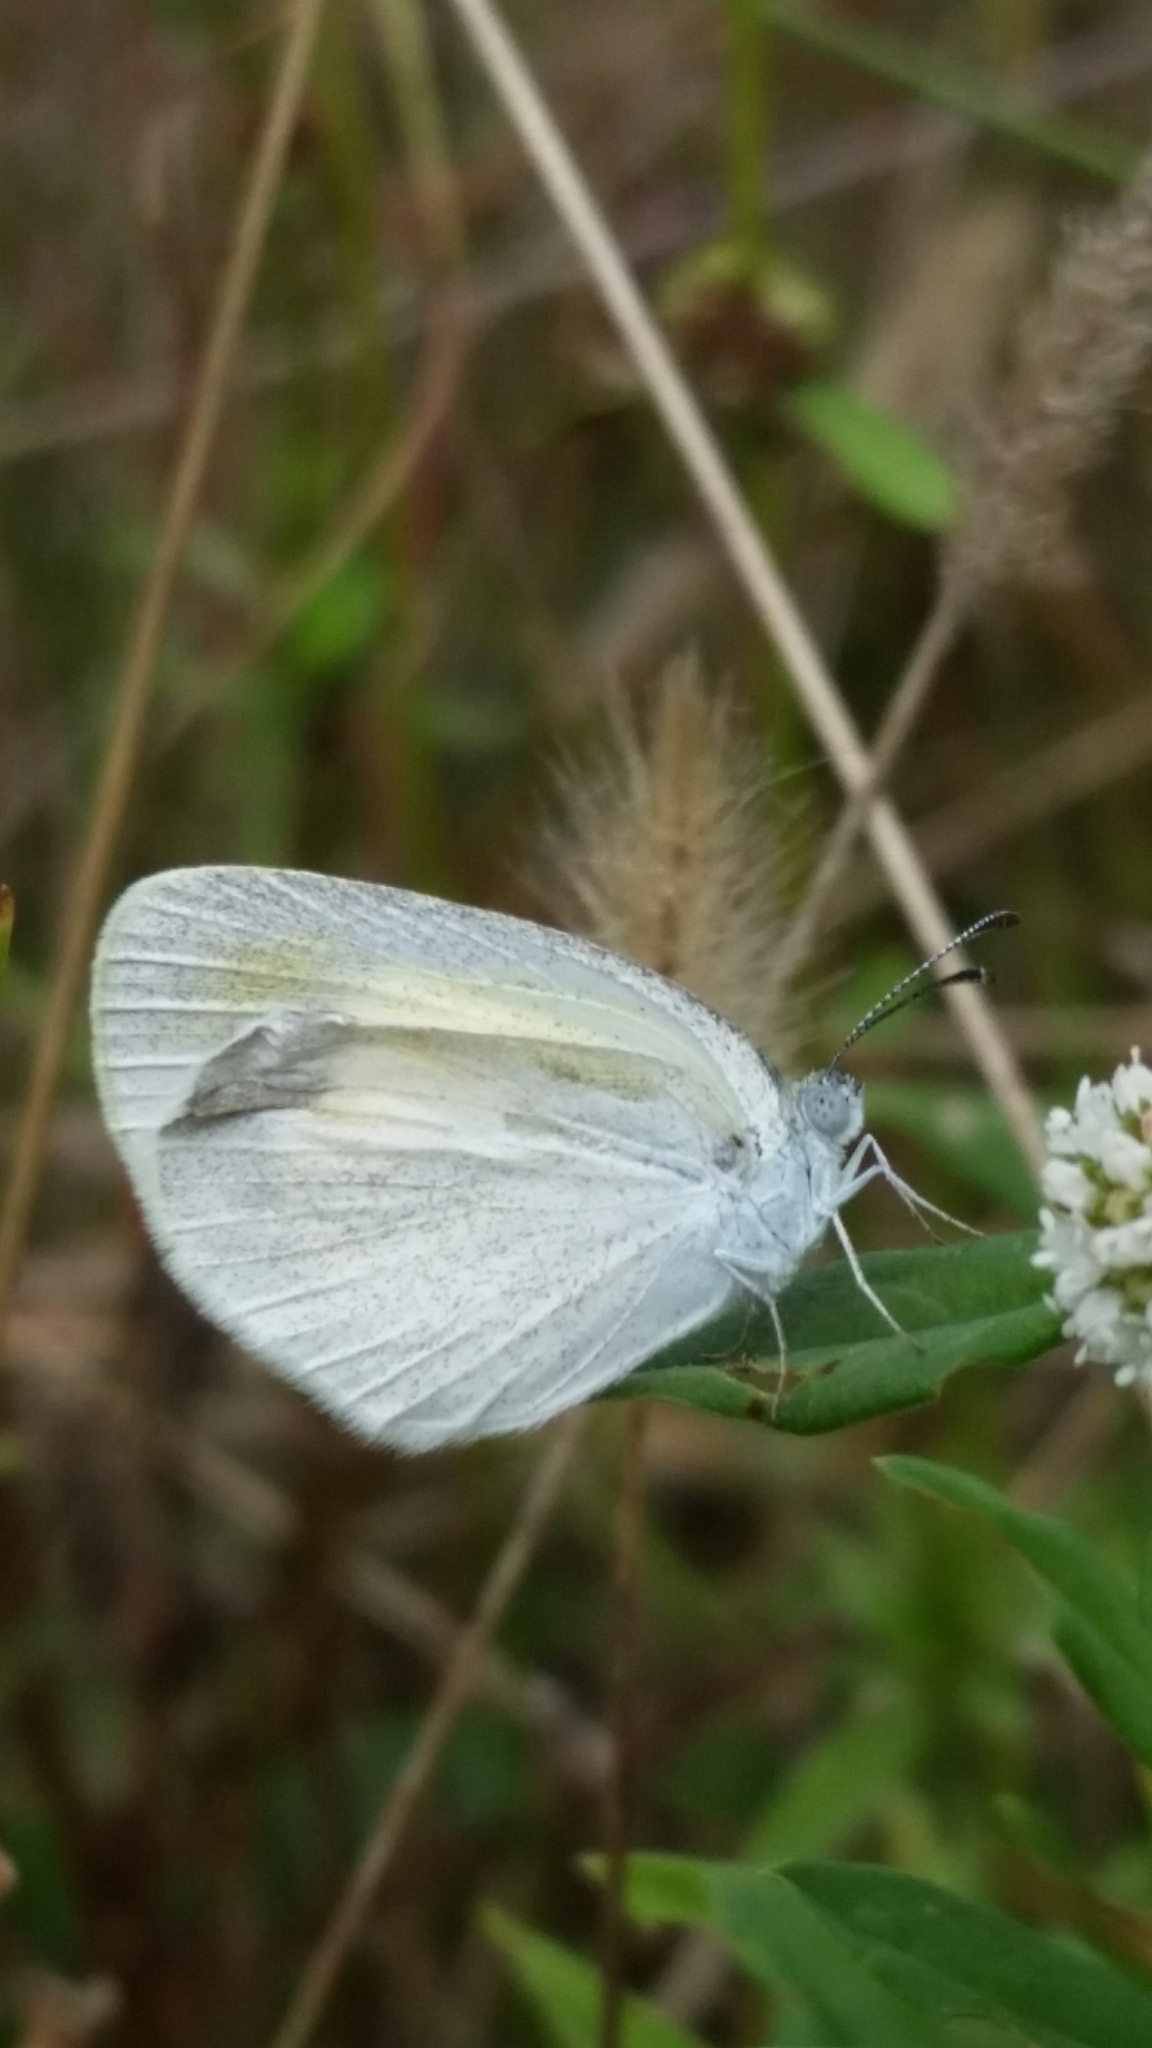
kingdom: Animalia
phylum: Arthropoda
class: Insecta
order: Lepidoptera
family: Pieridae
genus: Eurema
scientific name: Eurema daira
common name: Barred sulphur
